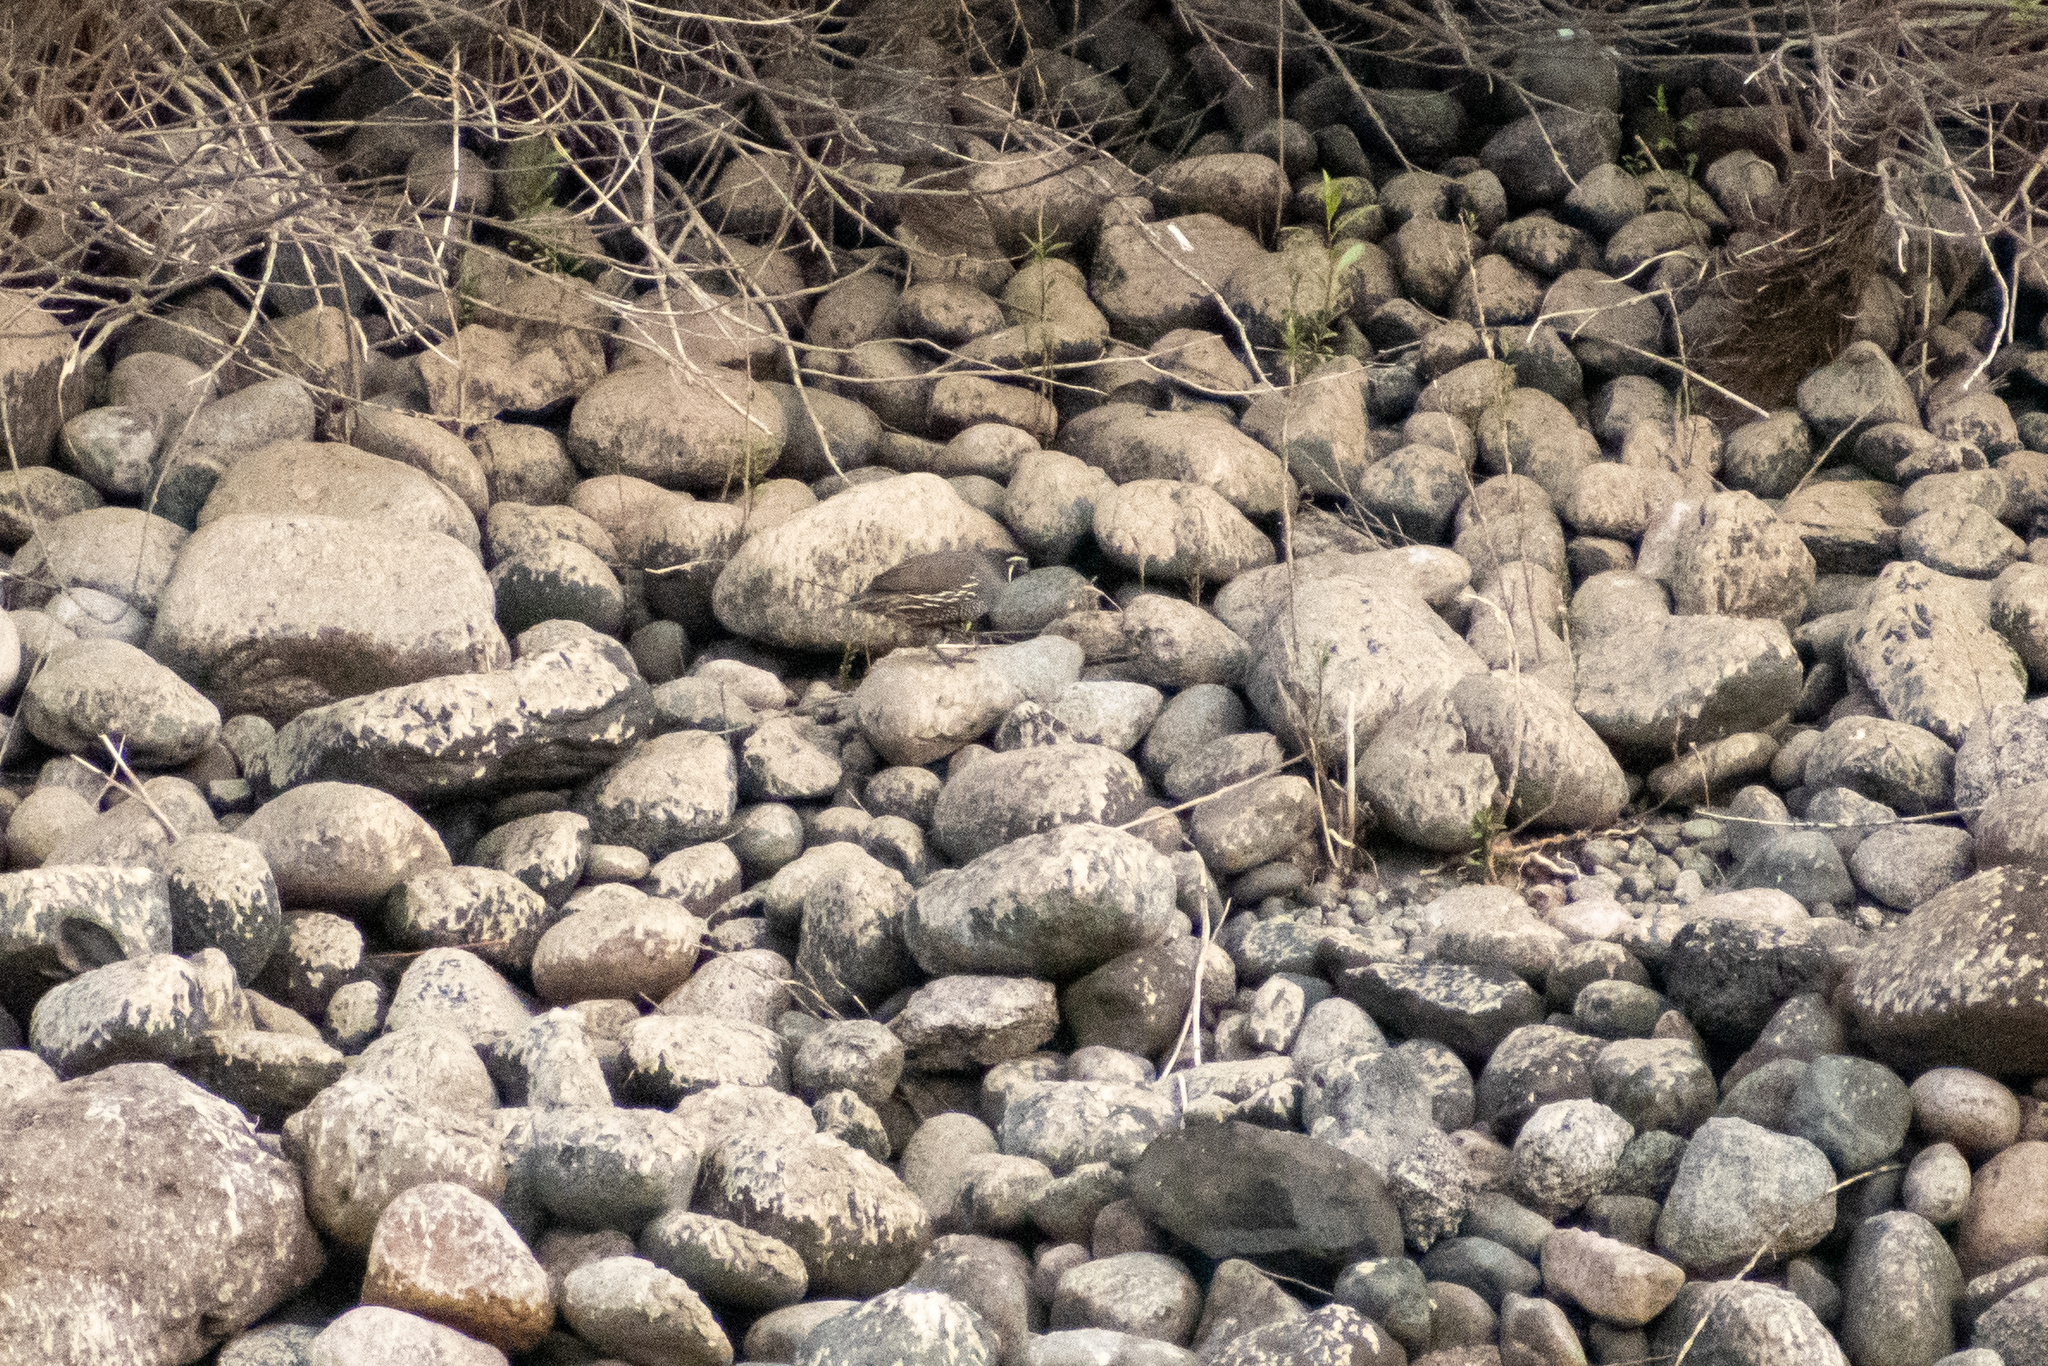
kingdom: Animalia
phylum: Chordata
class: Aves
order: Galliformes
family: Odontophoridae
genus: Callipepla
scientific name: Callipepla californica
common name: California quail
